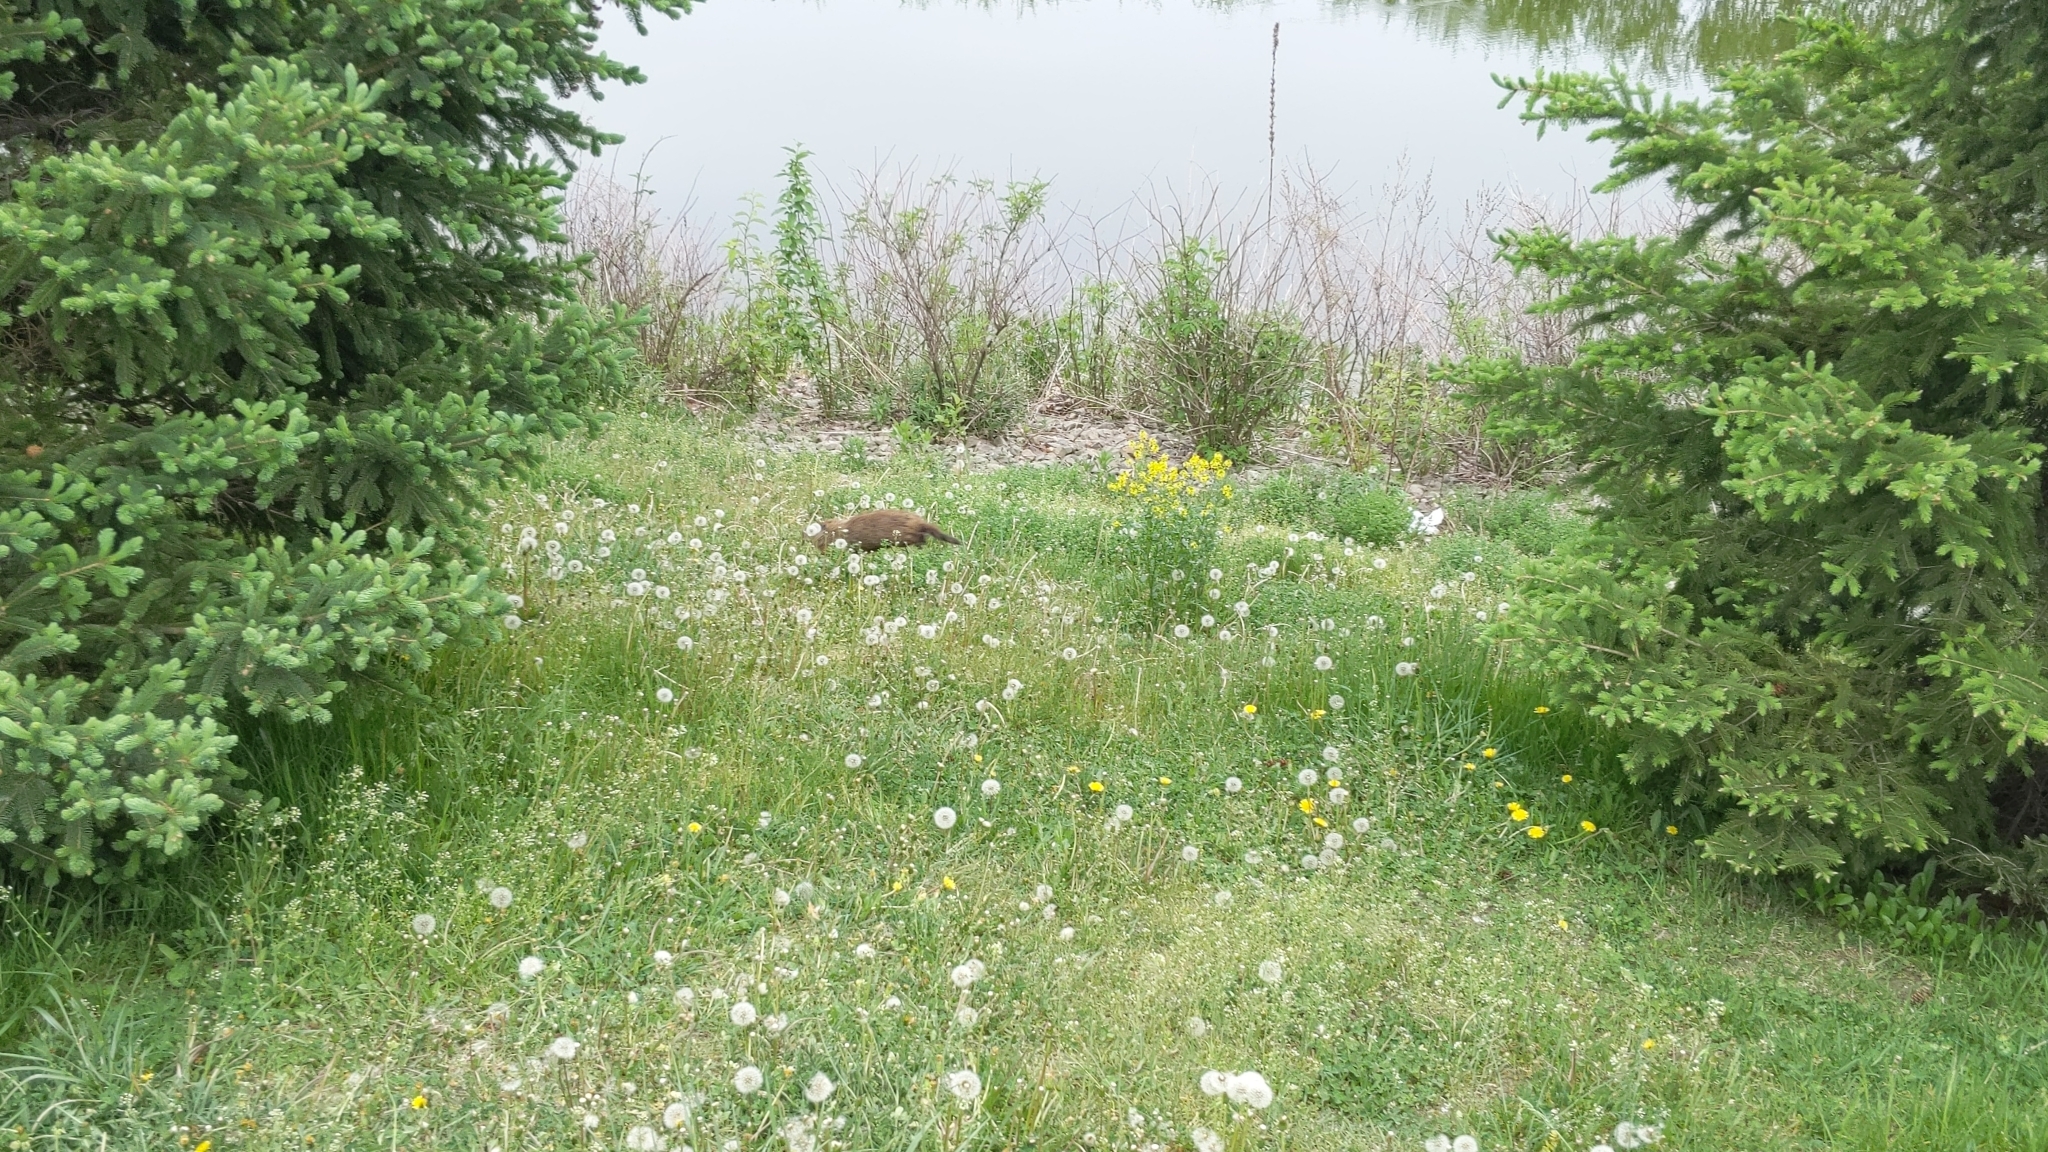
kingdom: Animalia
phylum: Chordata
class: Mammalia
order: Rodentia
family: Sciuridae
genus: Marmota
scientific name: Marmota monax
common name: Groundhog
